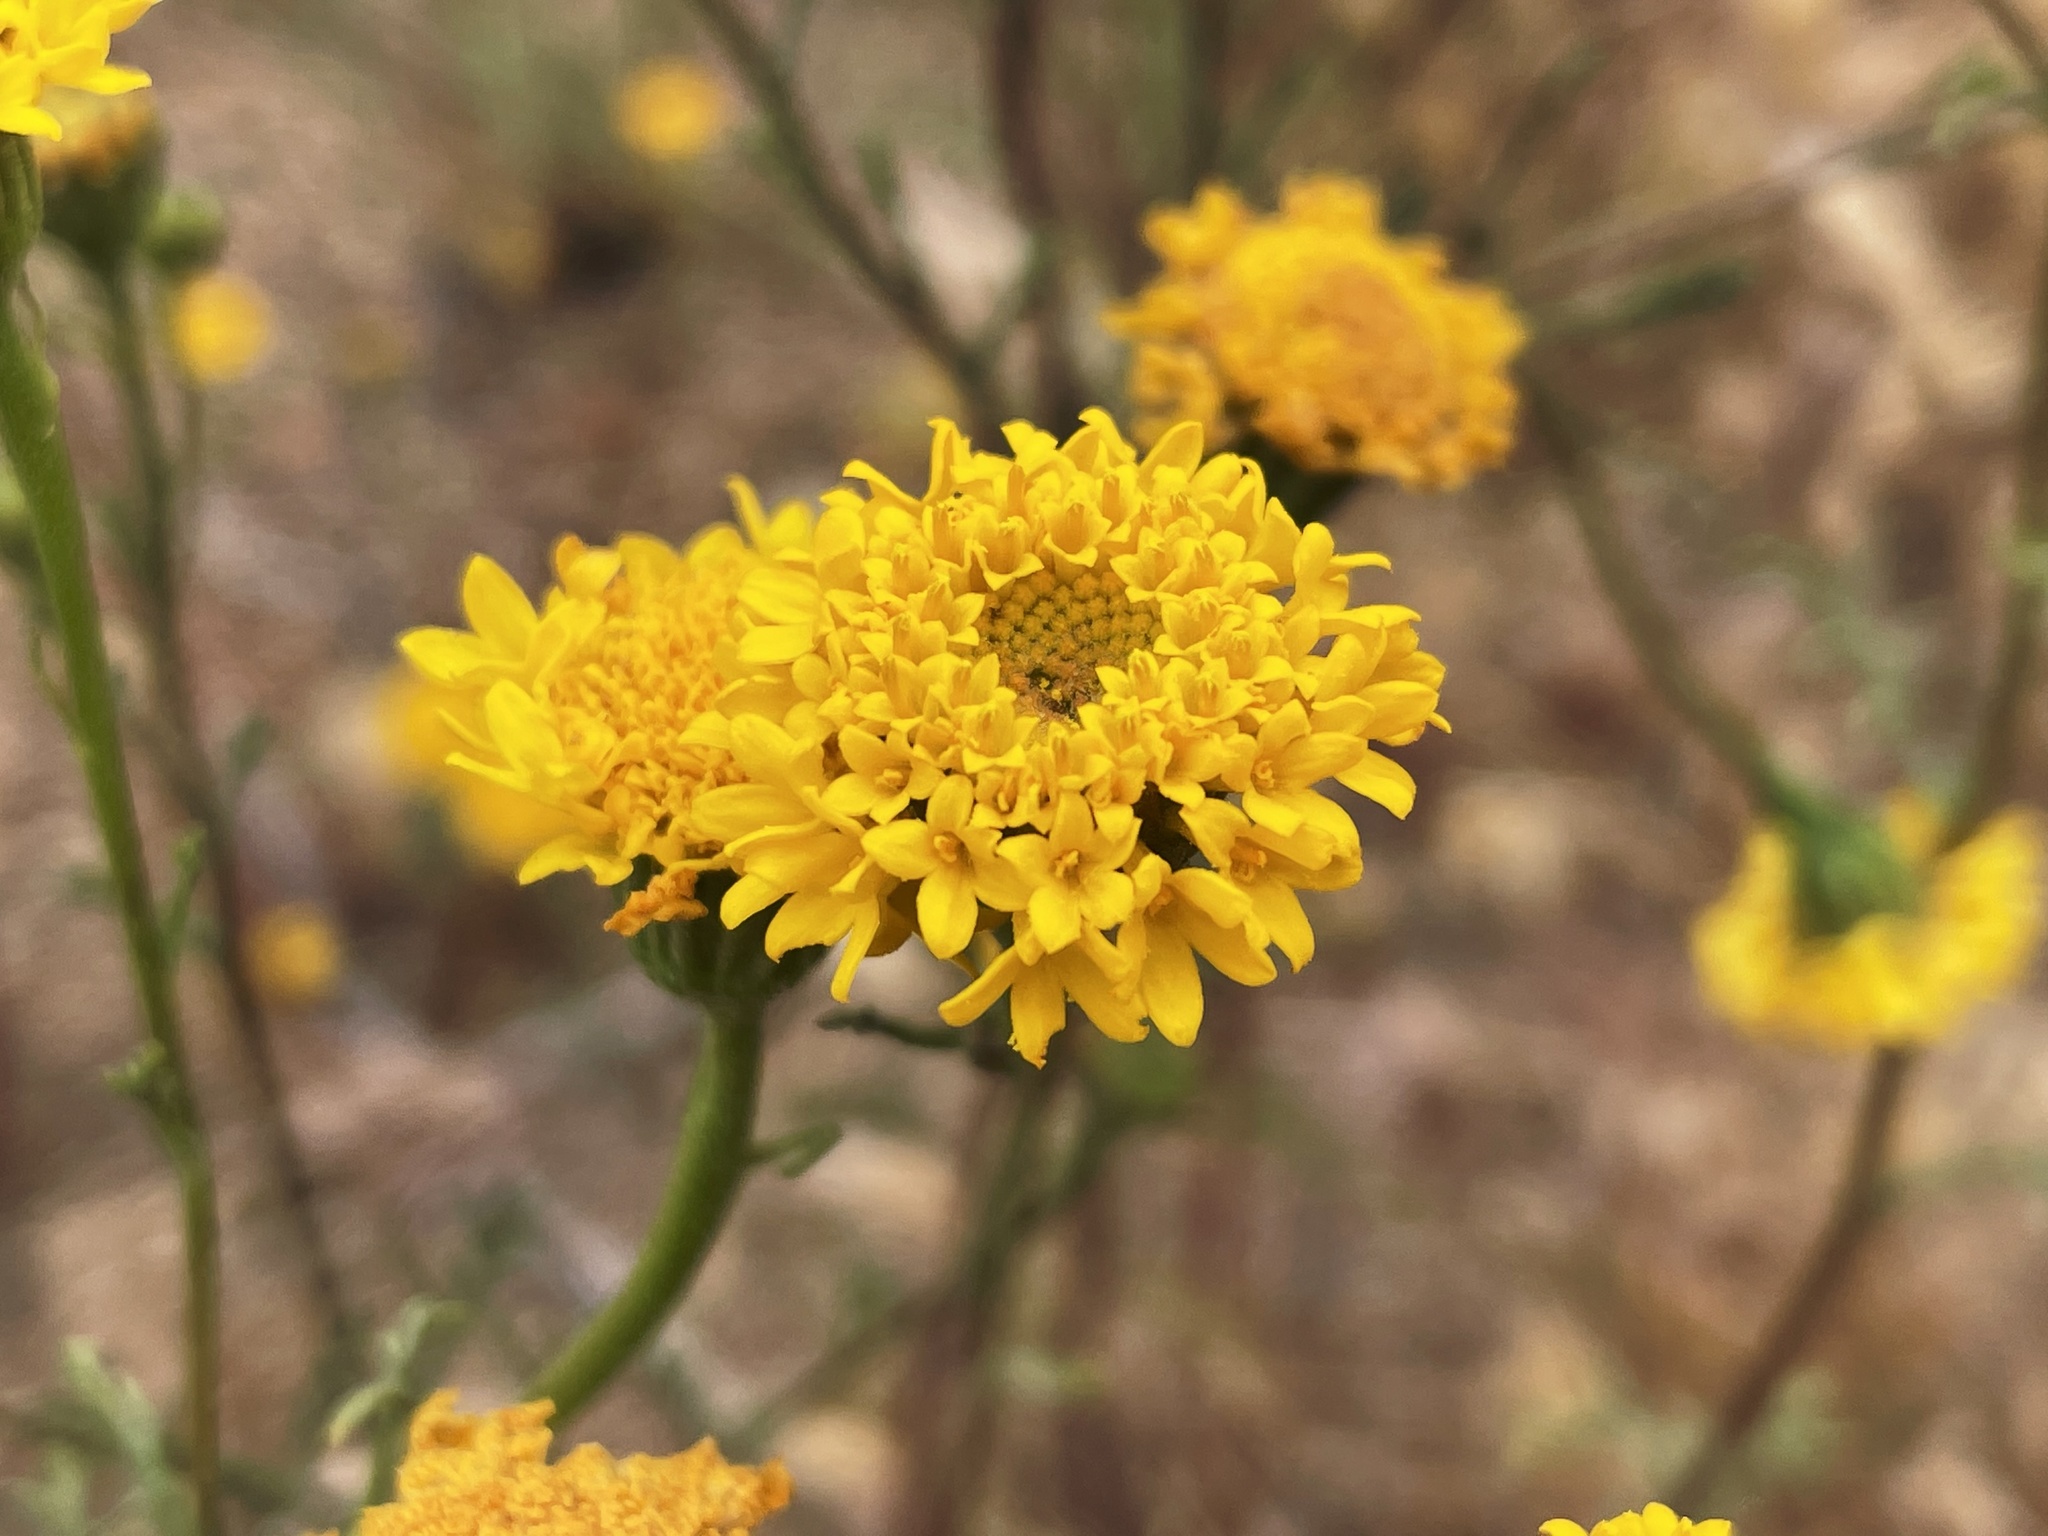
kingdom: Plantae
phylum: Tracheophyta
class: Magnoliopsida
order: Asterales
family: Asteraceae
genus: Chaenactis
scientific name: Chaenactis glabriuscula
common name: Yellow pincushion
